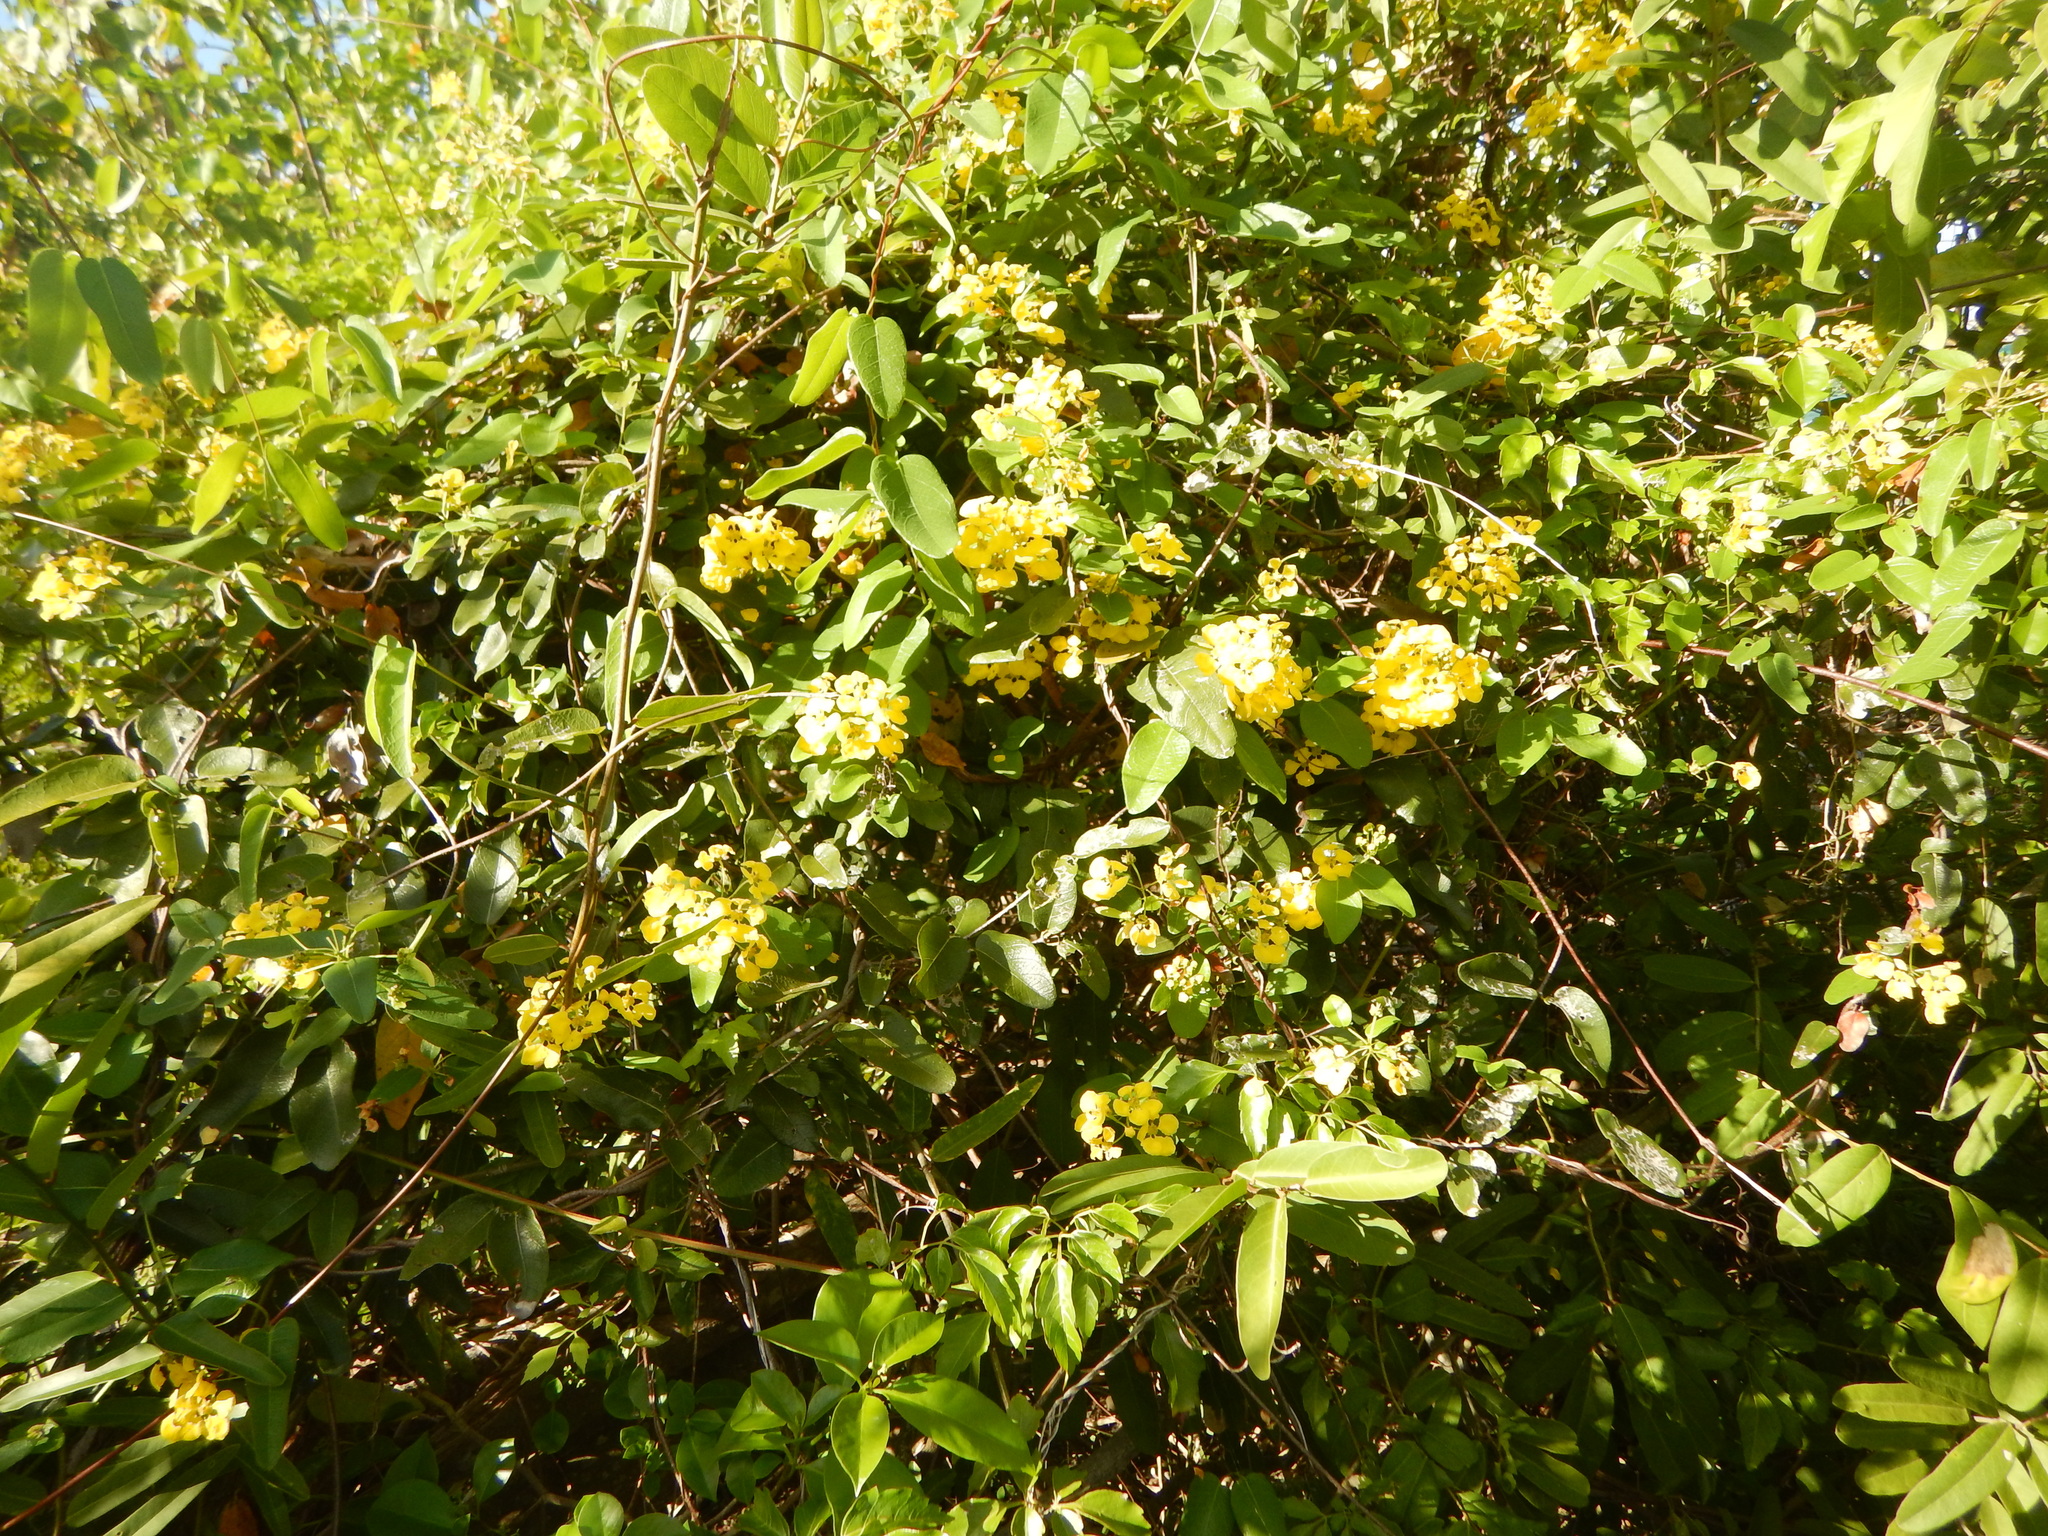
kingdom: Plantae
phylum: Tracheophyta
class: Magnoliopsida
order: Malpighiales
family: Malpighiaceae
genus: Stigmaphyllon
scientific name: Stigmaphyllon emarginatum
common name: Monarch amazonvine
